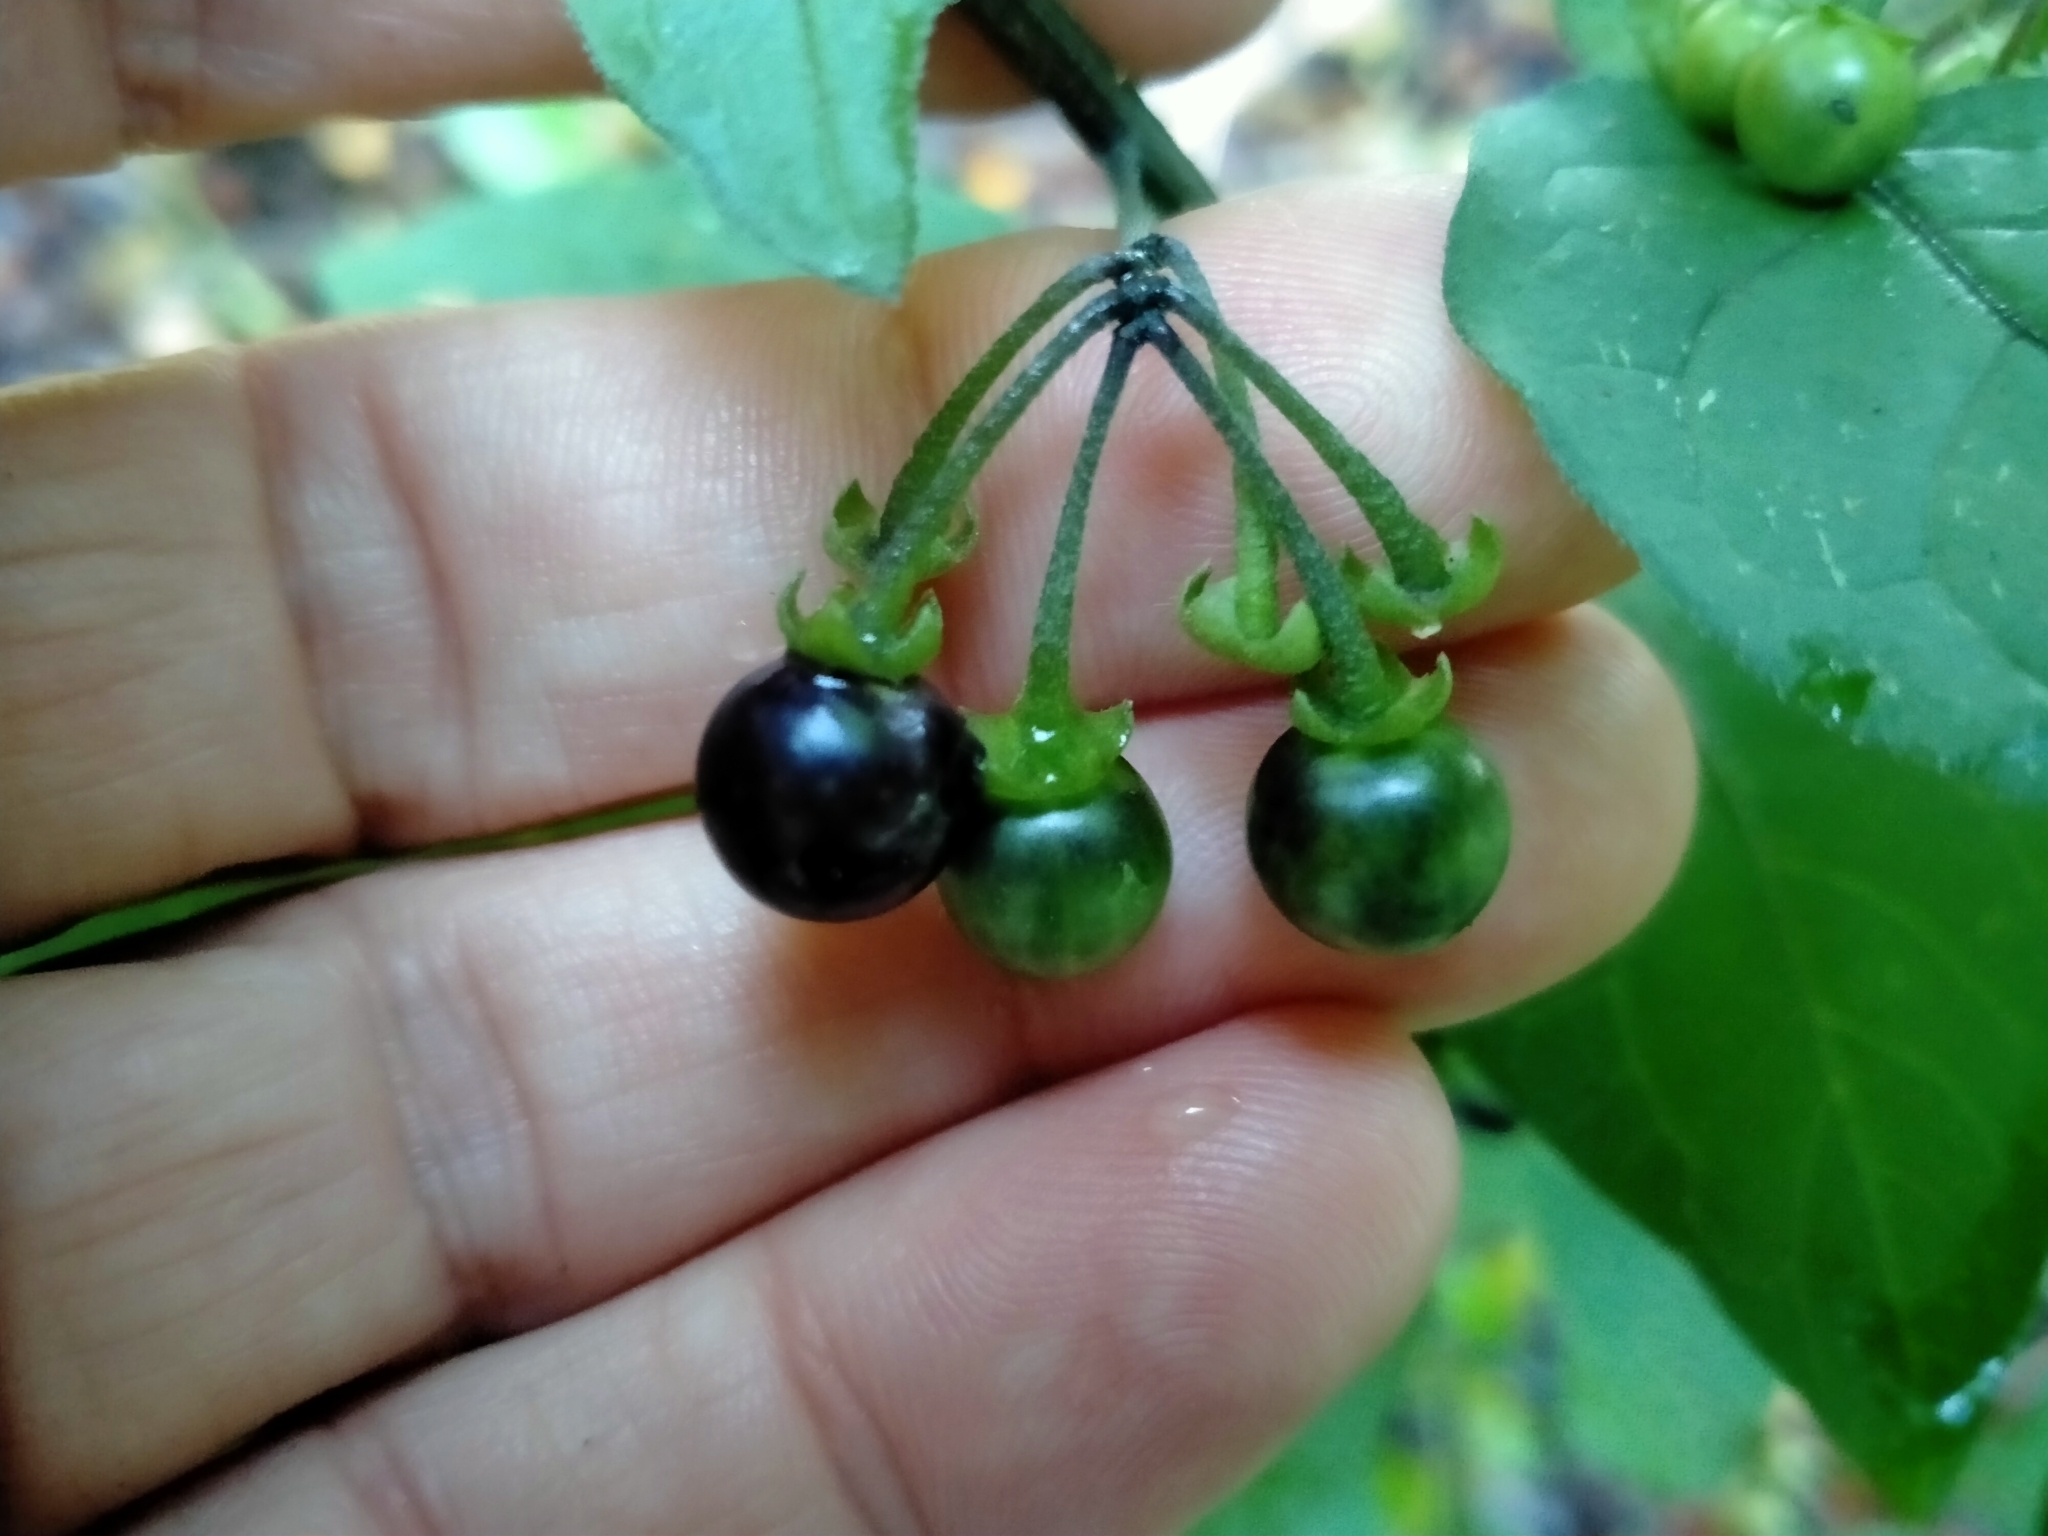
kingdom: Plantae
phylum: Tracheophyta
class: Magnoliopsida
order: Solanales
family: Solanaceae
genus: Solanum
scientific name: Solanum americanum
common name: American black nightshade
